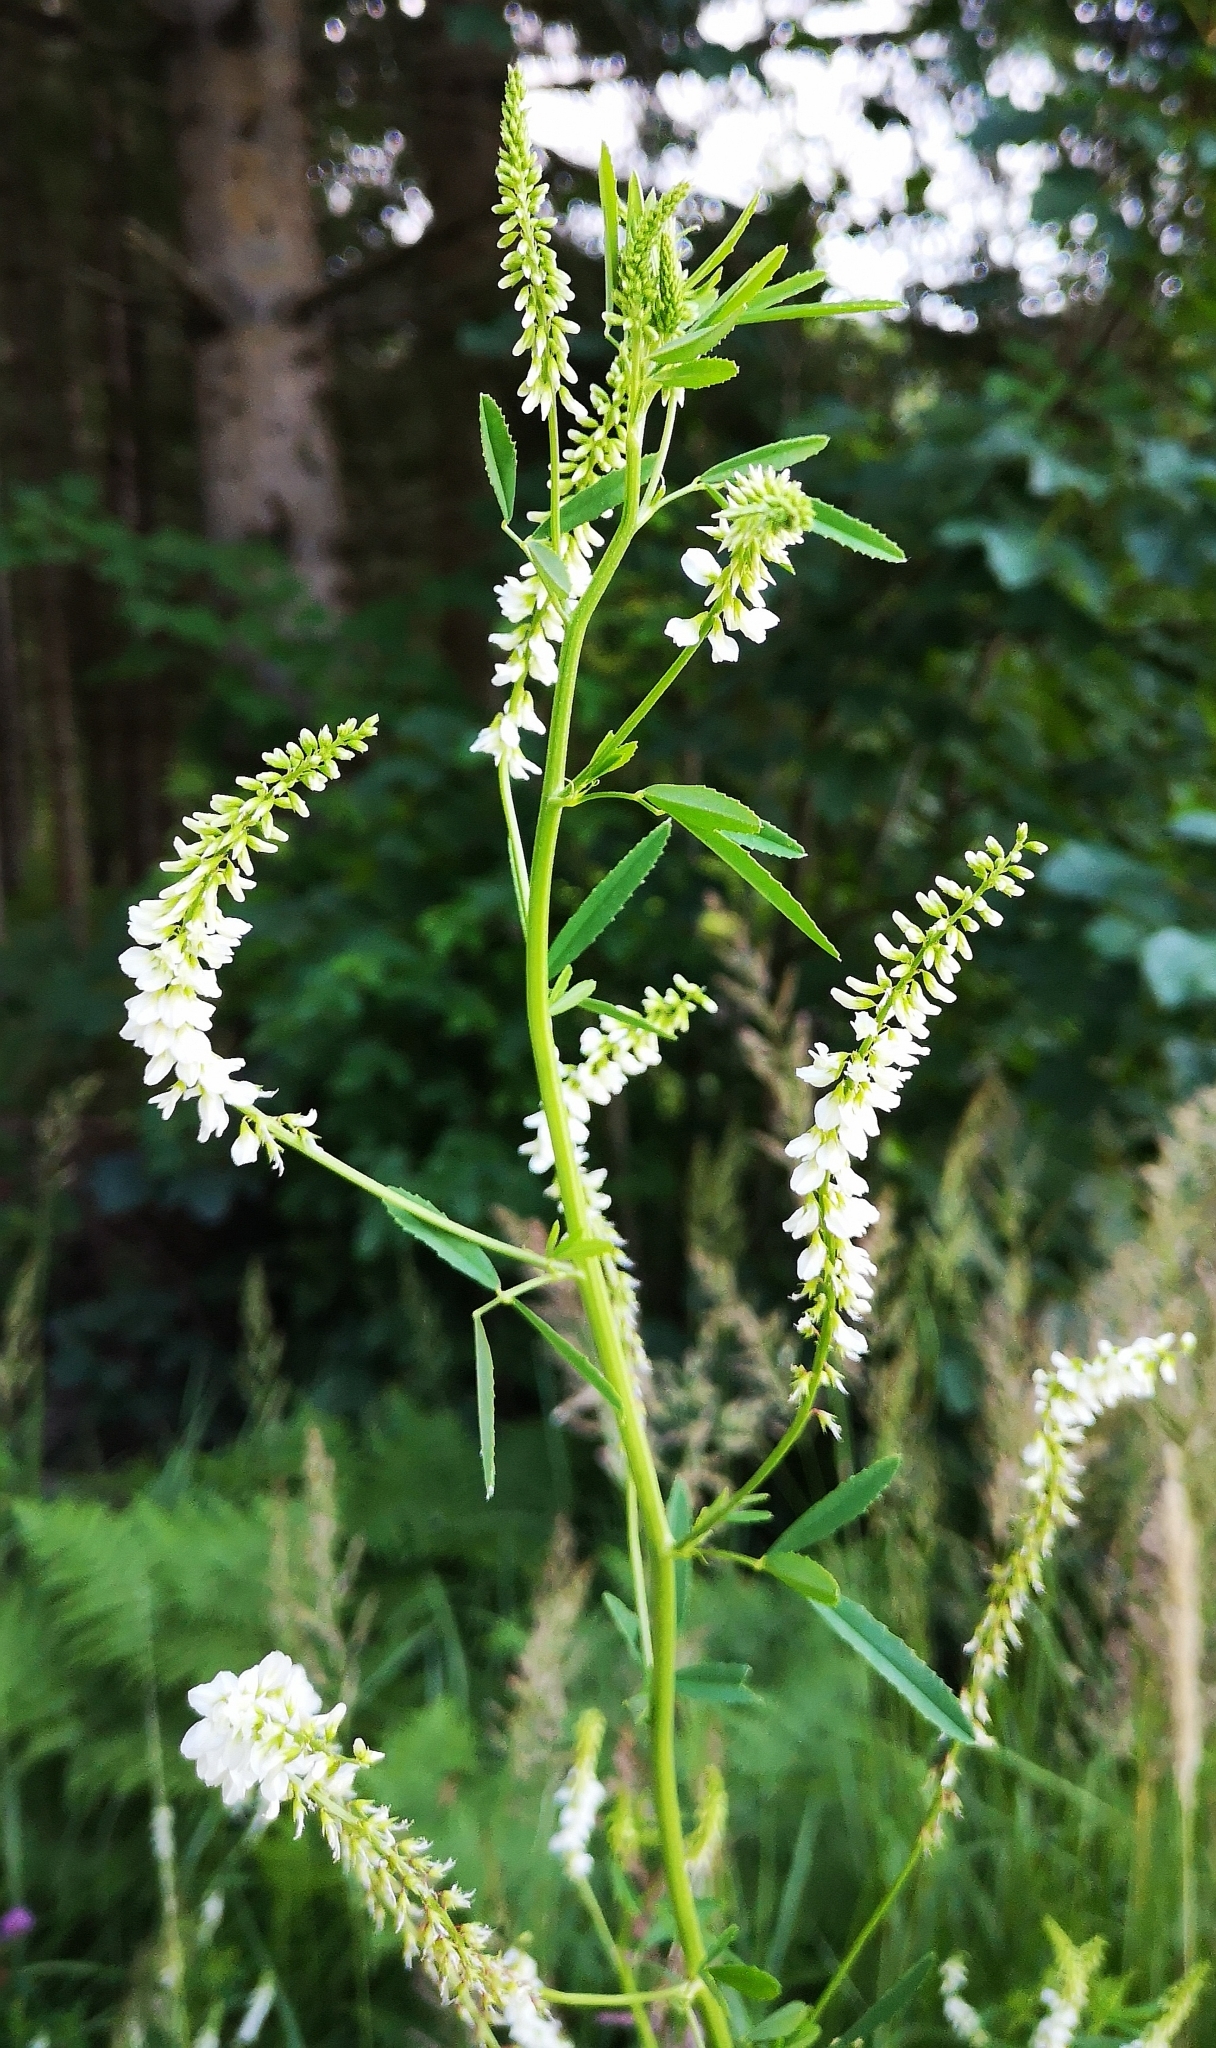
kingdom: Plantae
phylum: Tracheophyta
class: Magnoliopsida
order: Fabales
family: Fabaceae
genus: Melilotus
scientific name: Melilotus albus
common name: White melilot
